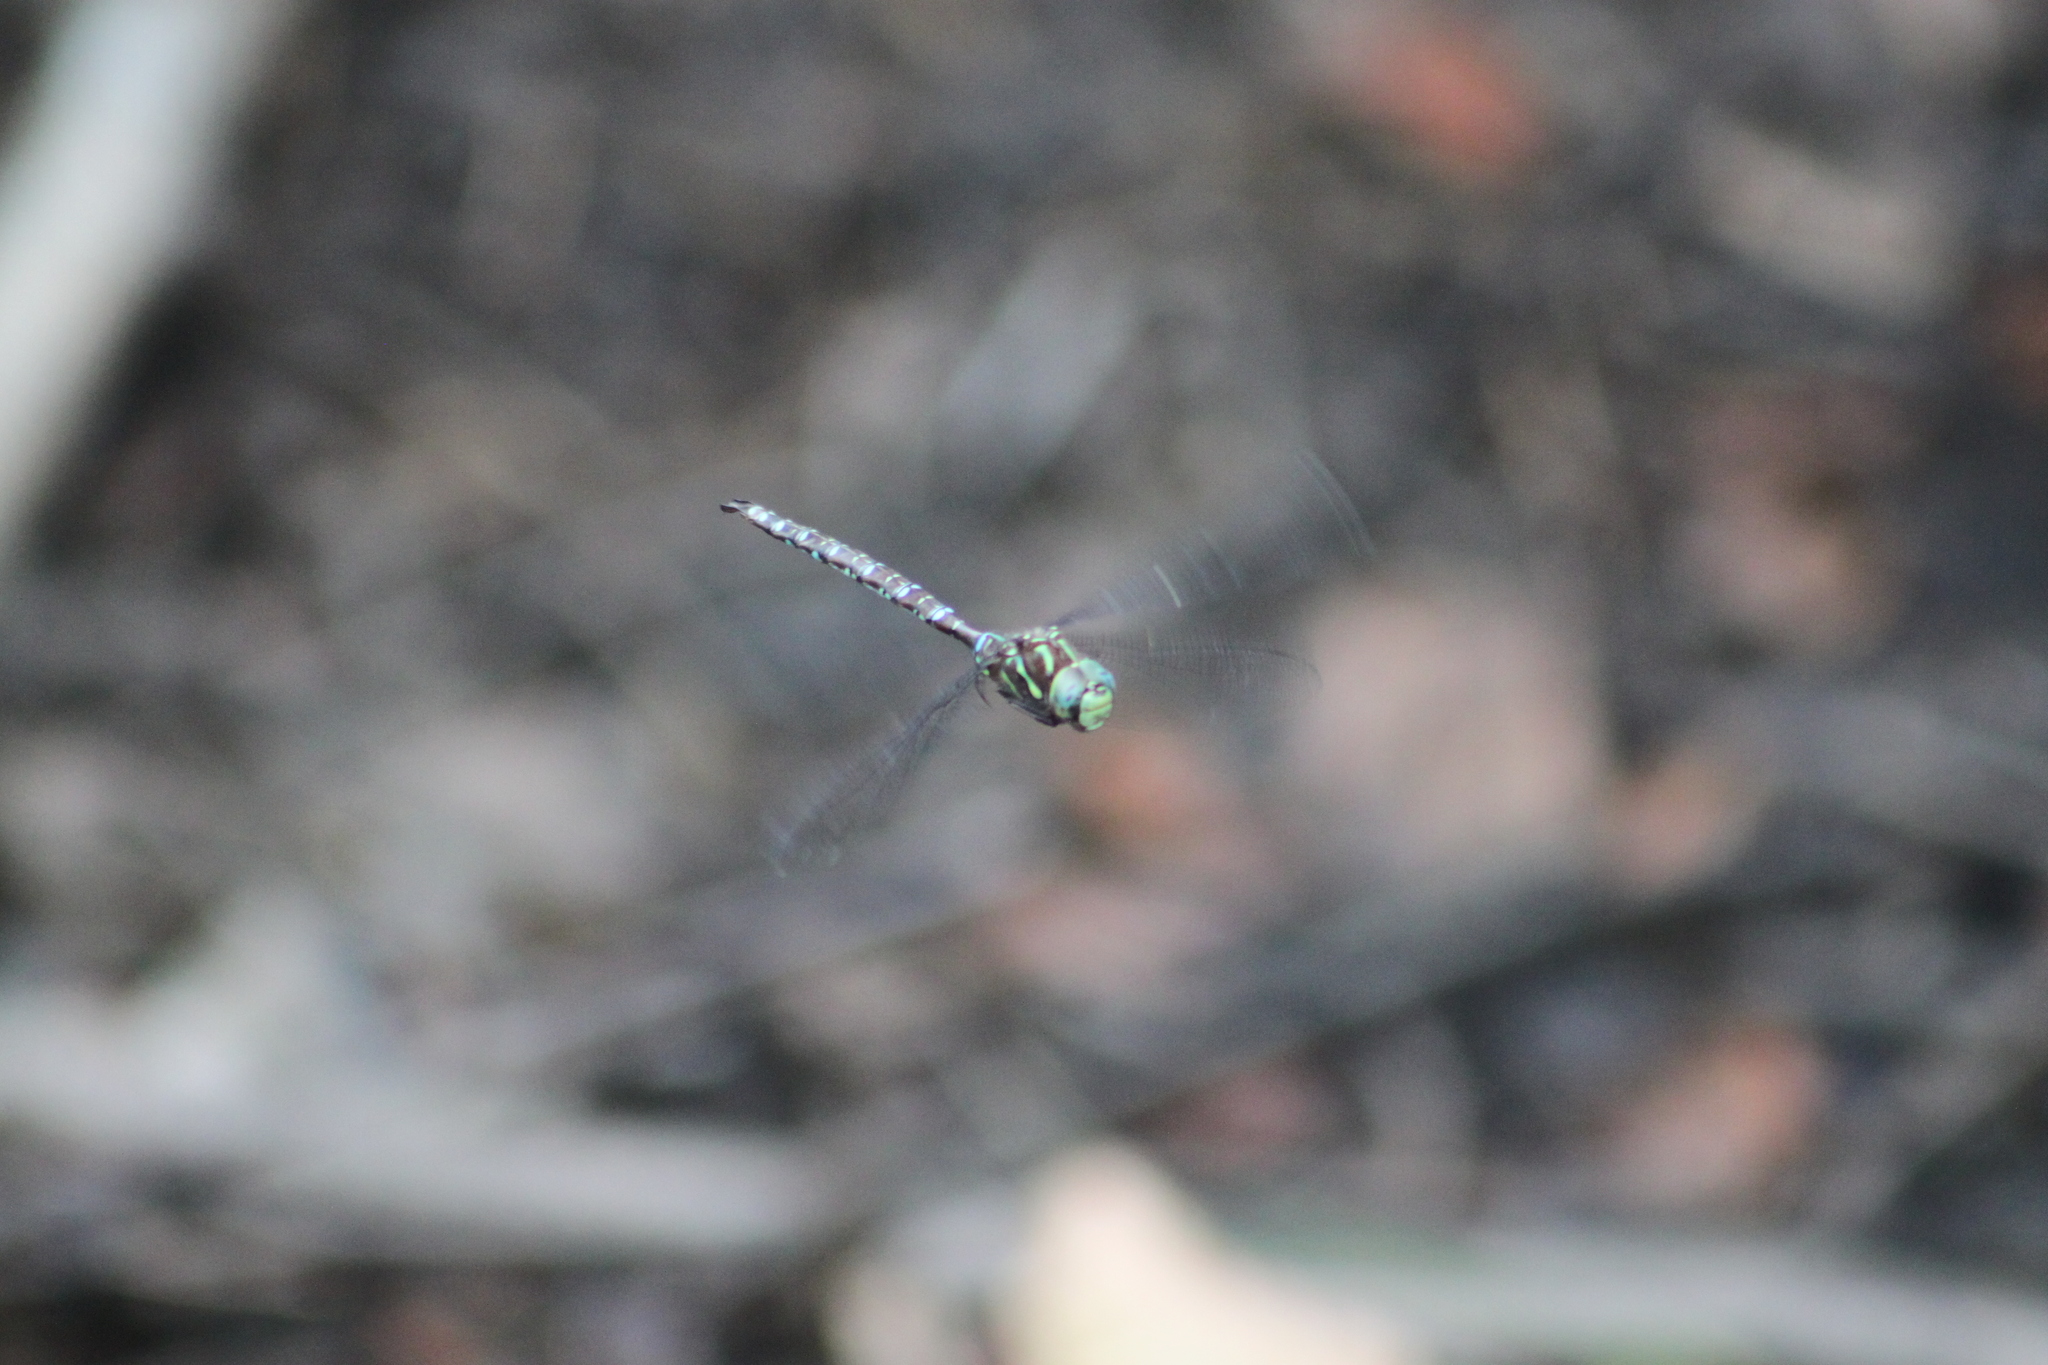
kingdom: Animalia
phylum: Arthropoda
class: Insecta
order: Odonata
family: Aeshnidae
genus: Aeshna
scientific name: Aeshna umbrosa
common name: Shadow darner
